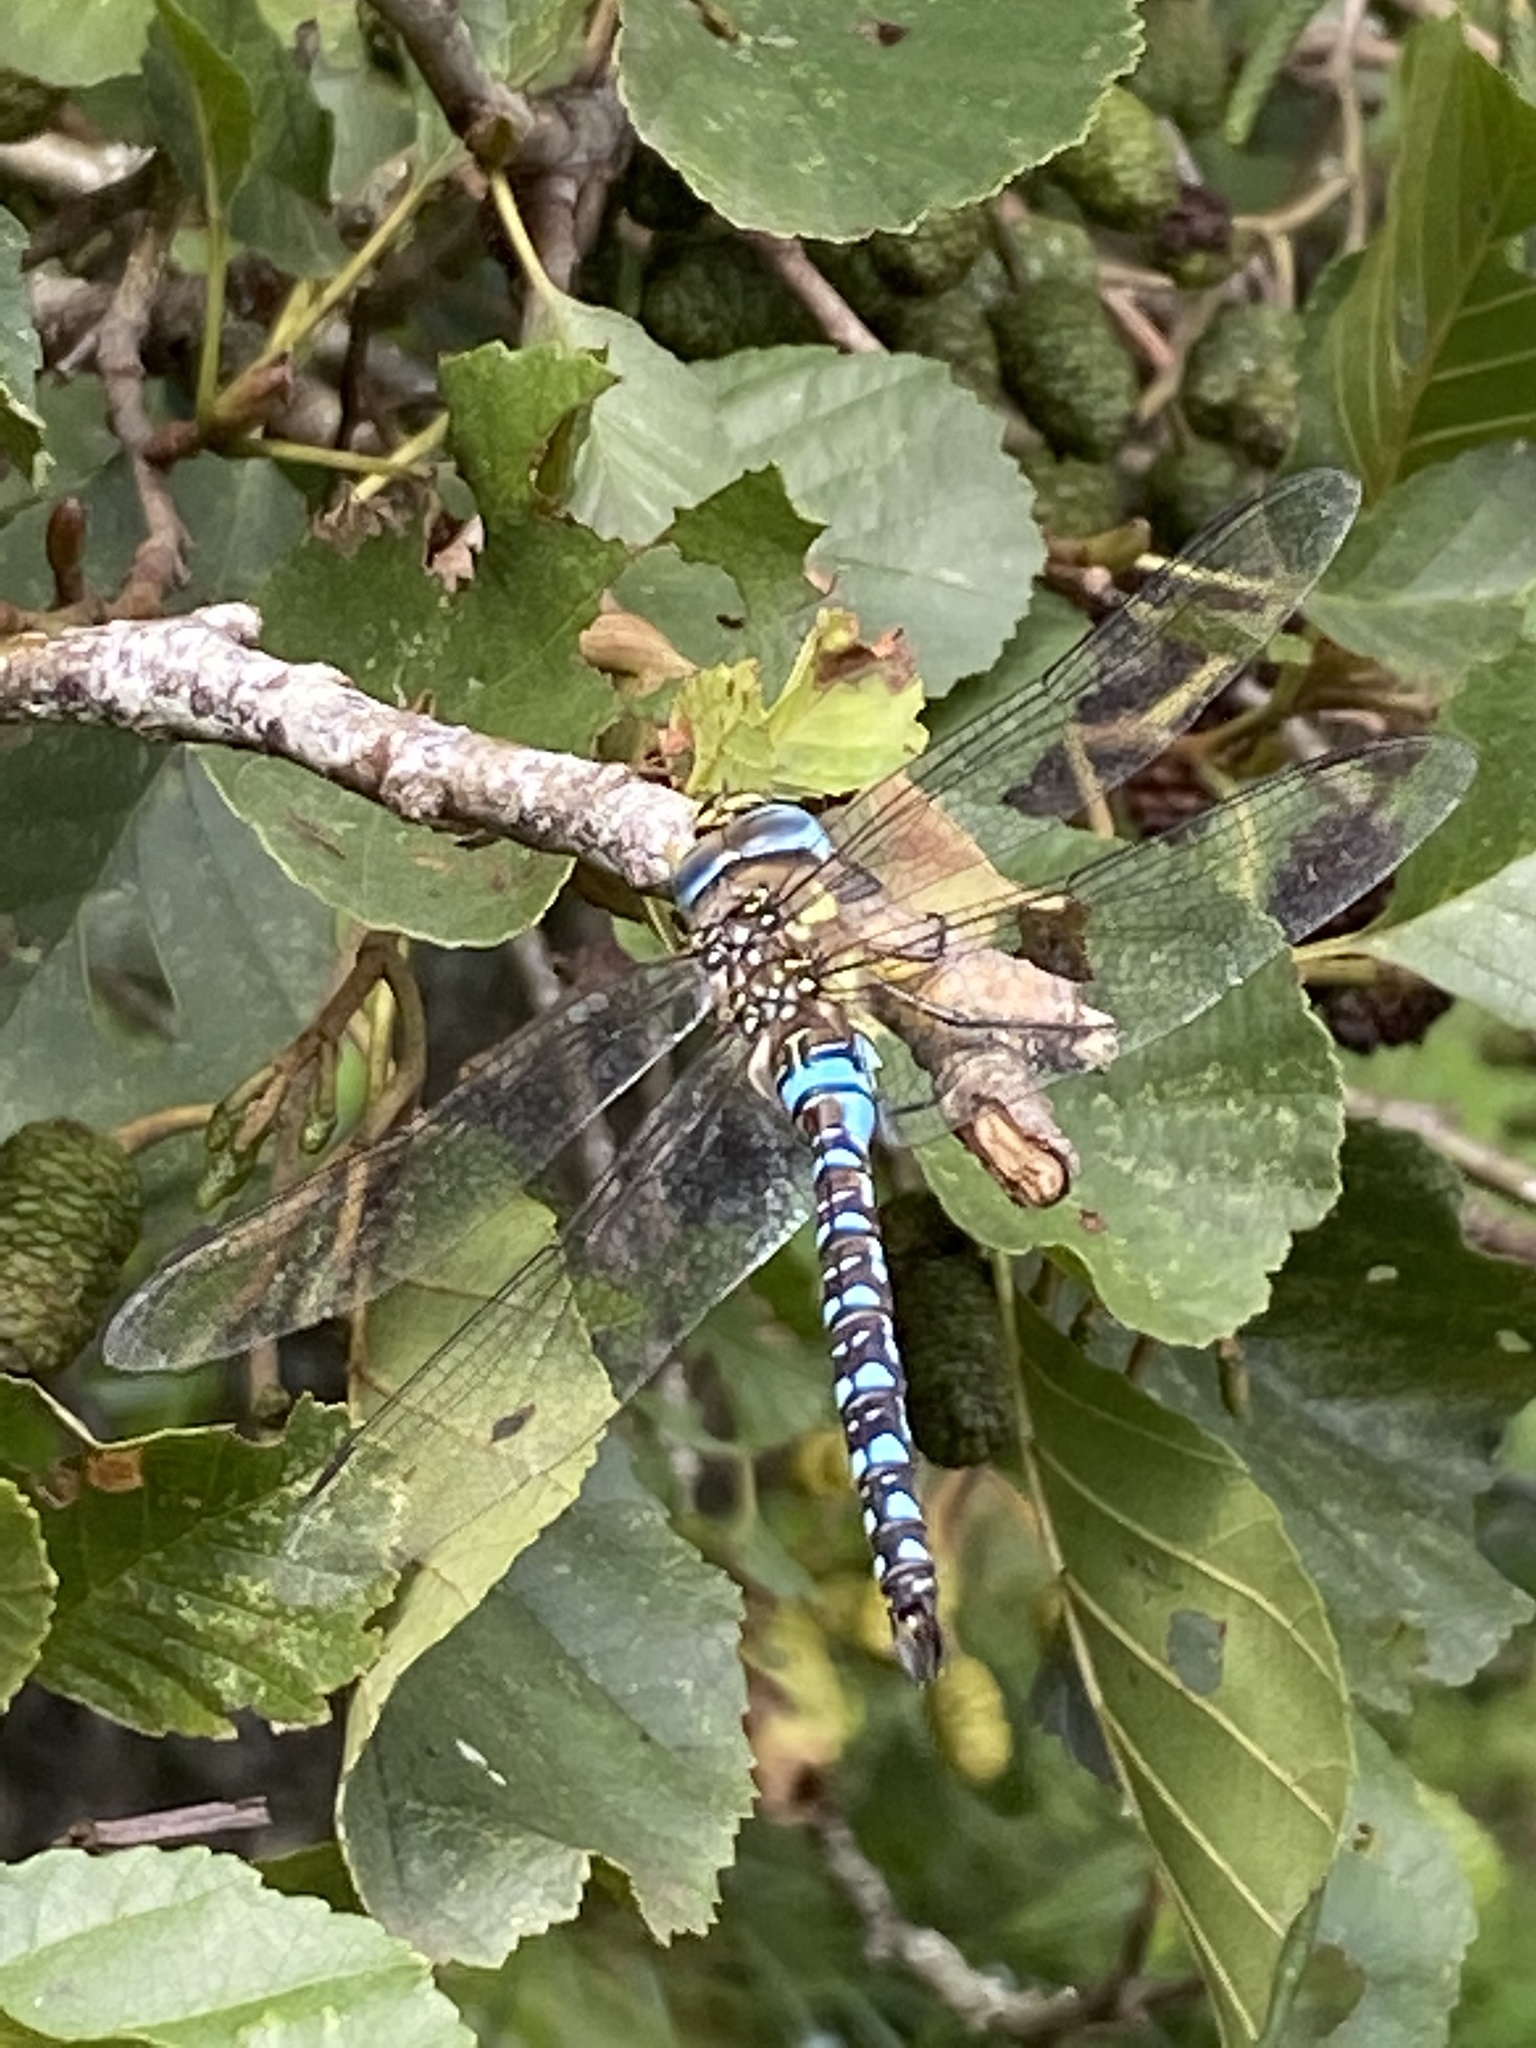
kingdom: Animalia
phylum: Arthropoda
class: Insecta
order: Odonata
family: Aeshnidae
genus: Aeshna
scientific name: Aeshna mixta
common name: Migrant hawker
